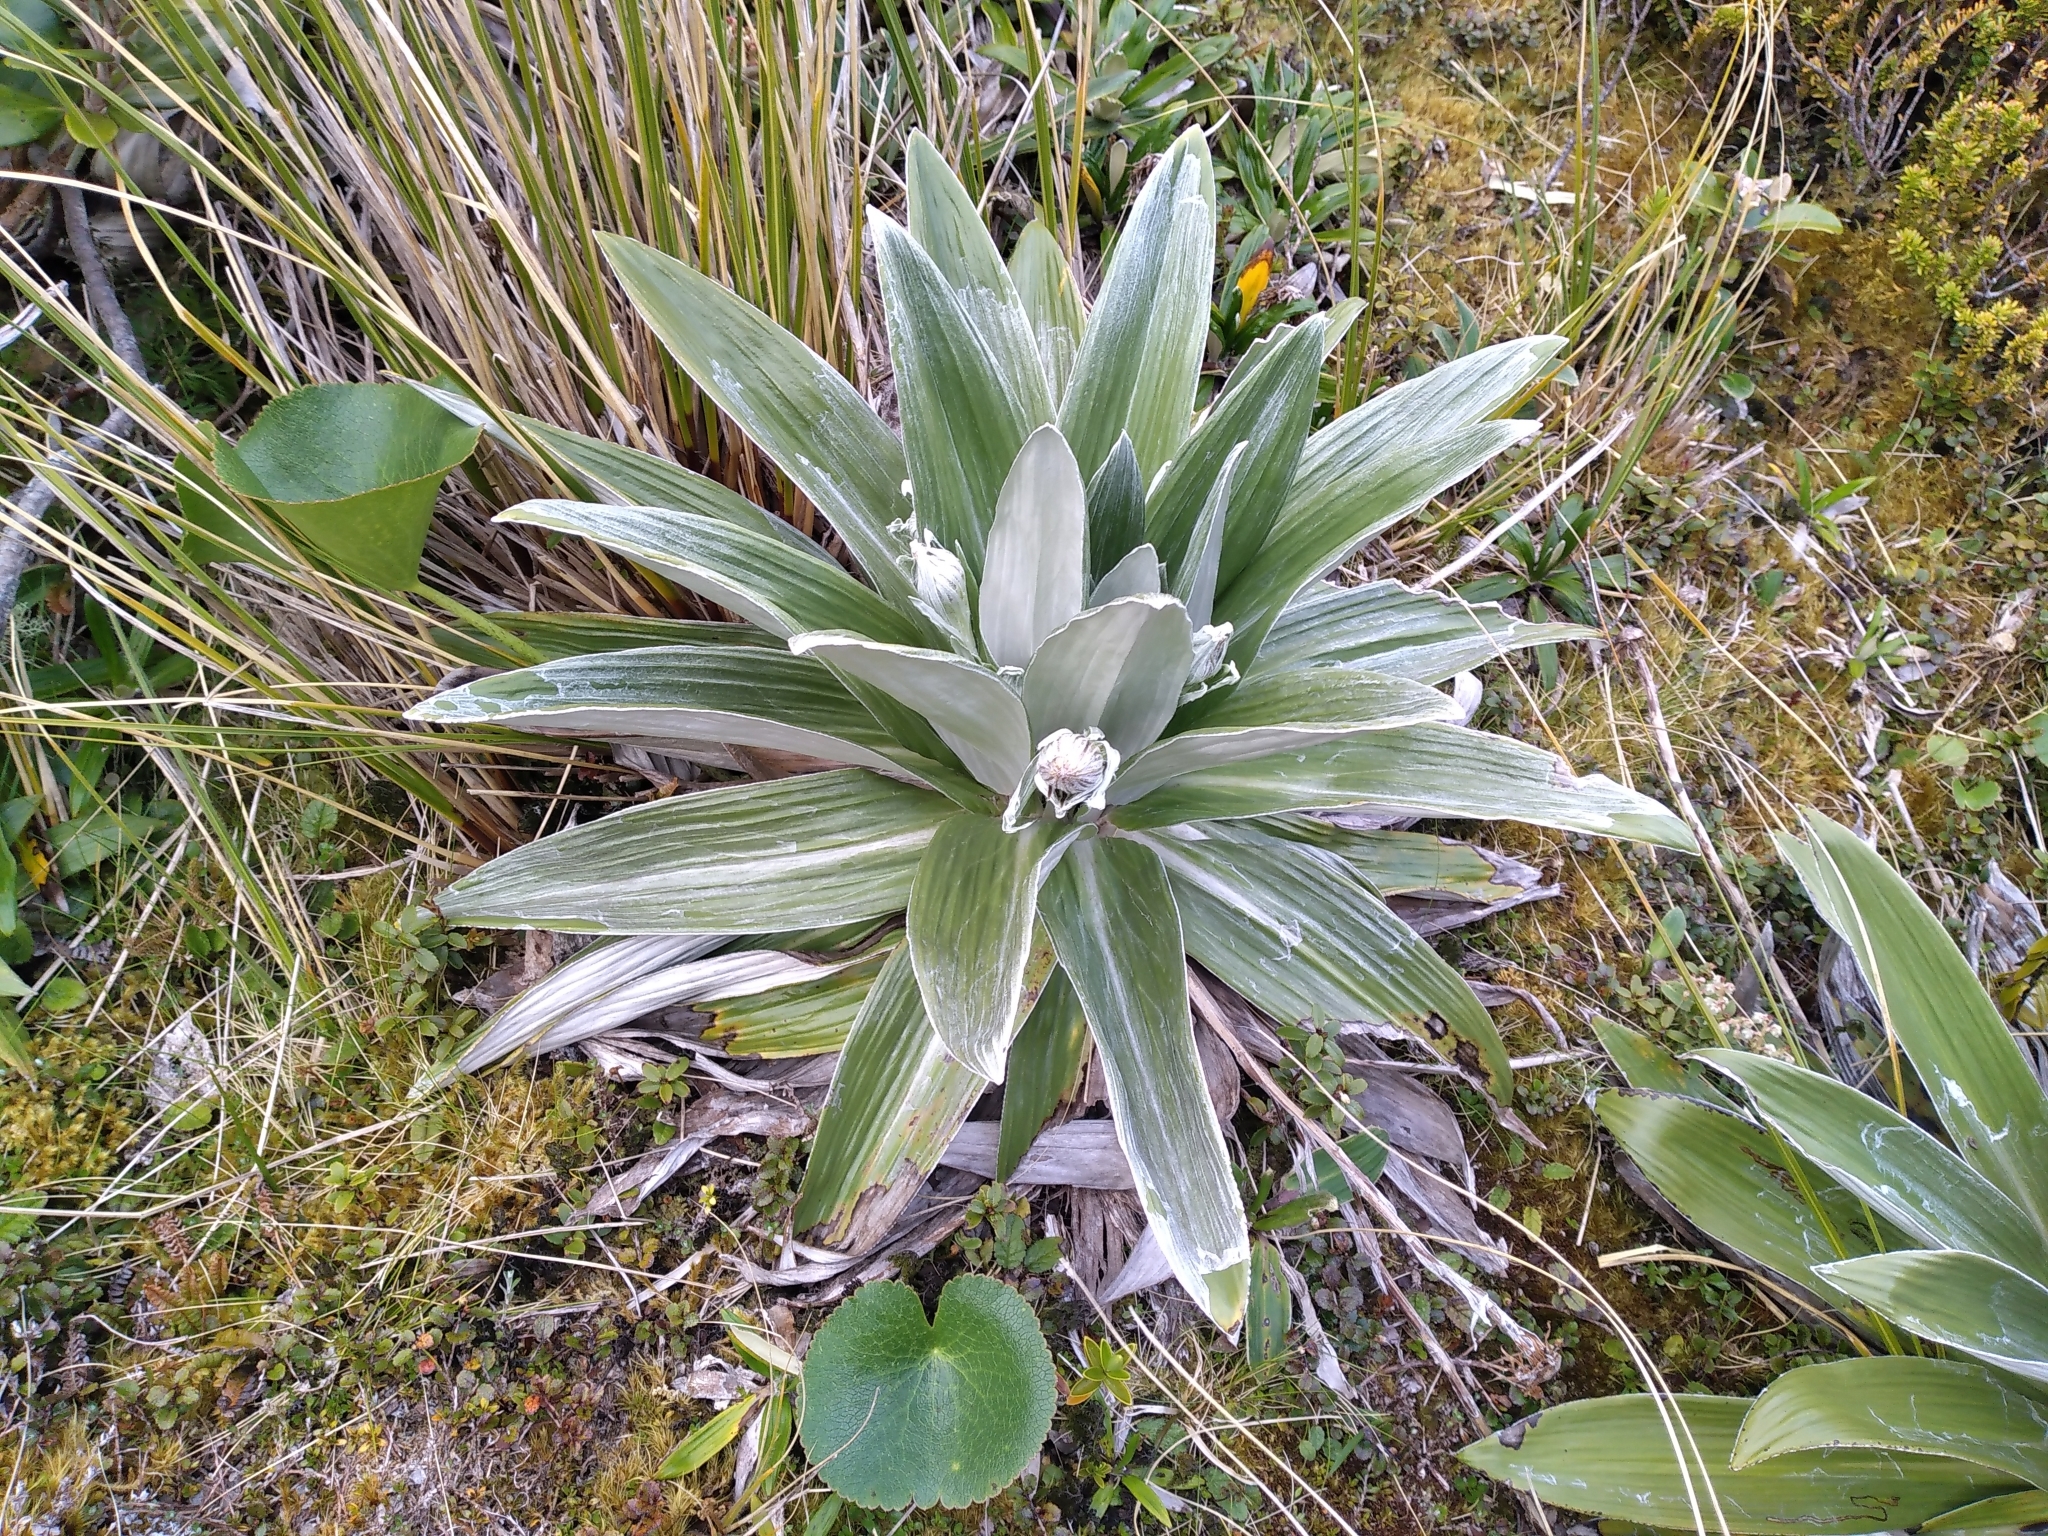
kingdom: Plantae
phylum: Tracheophyta
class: Magnoliopsida
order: Asterales
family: Asteraceae
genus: Celmisia
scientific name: Celmisia semicordata
